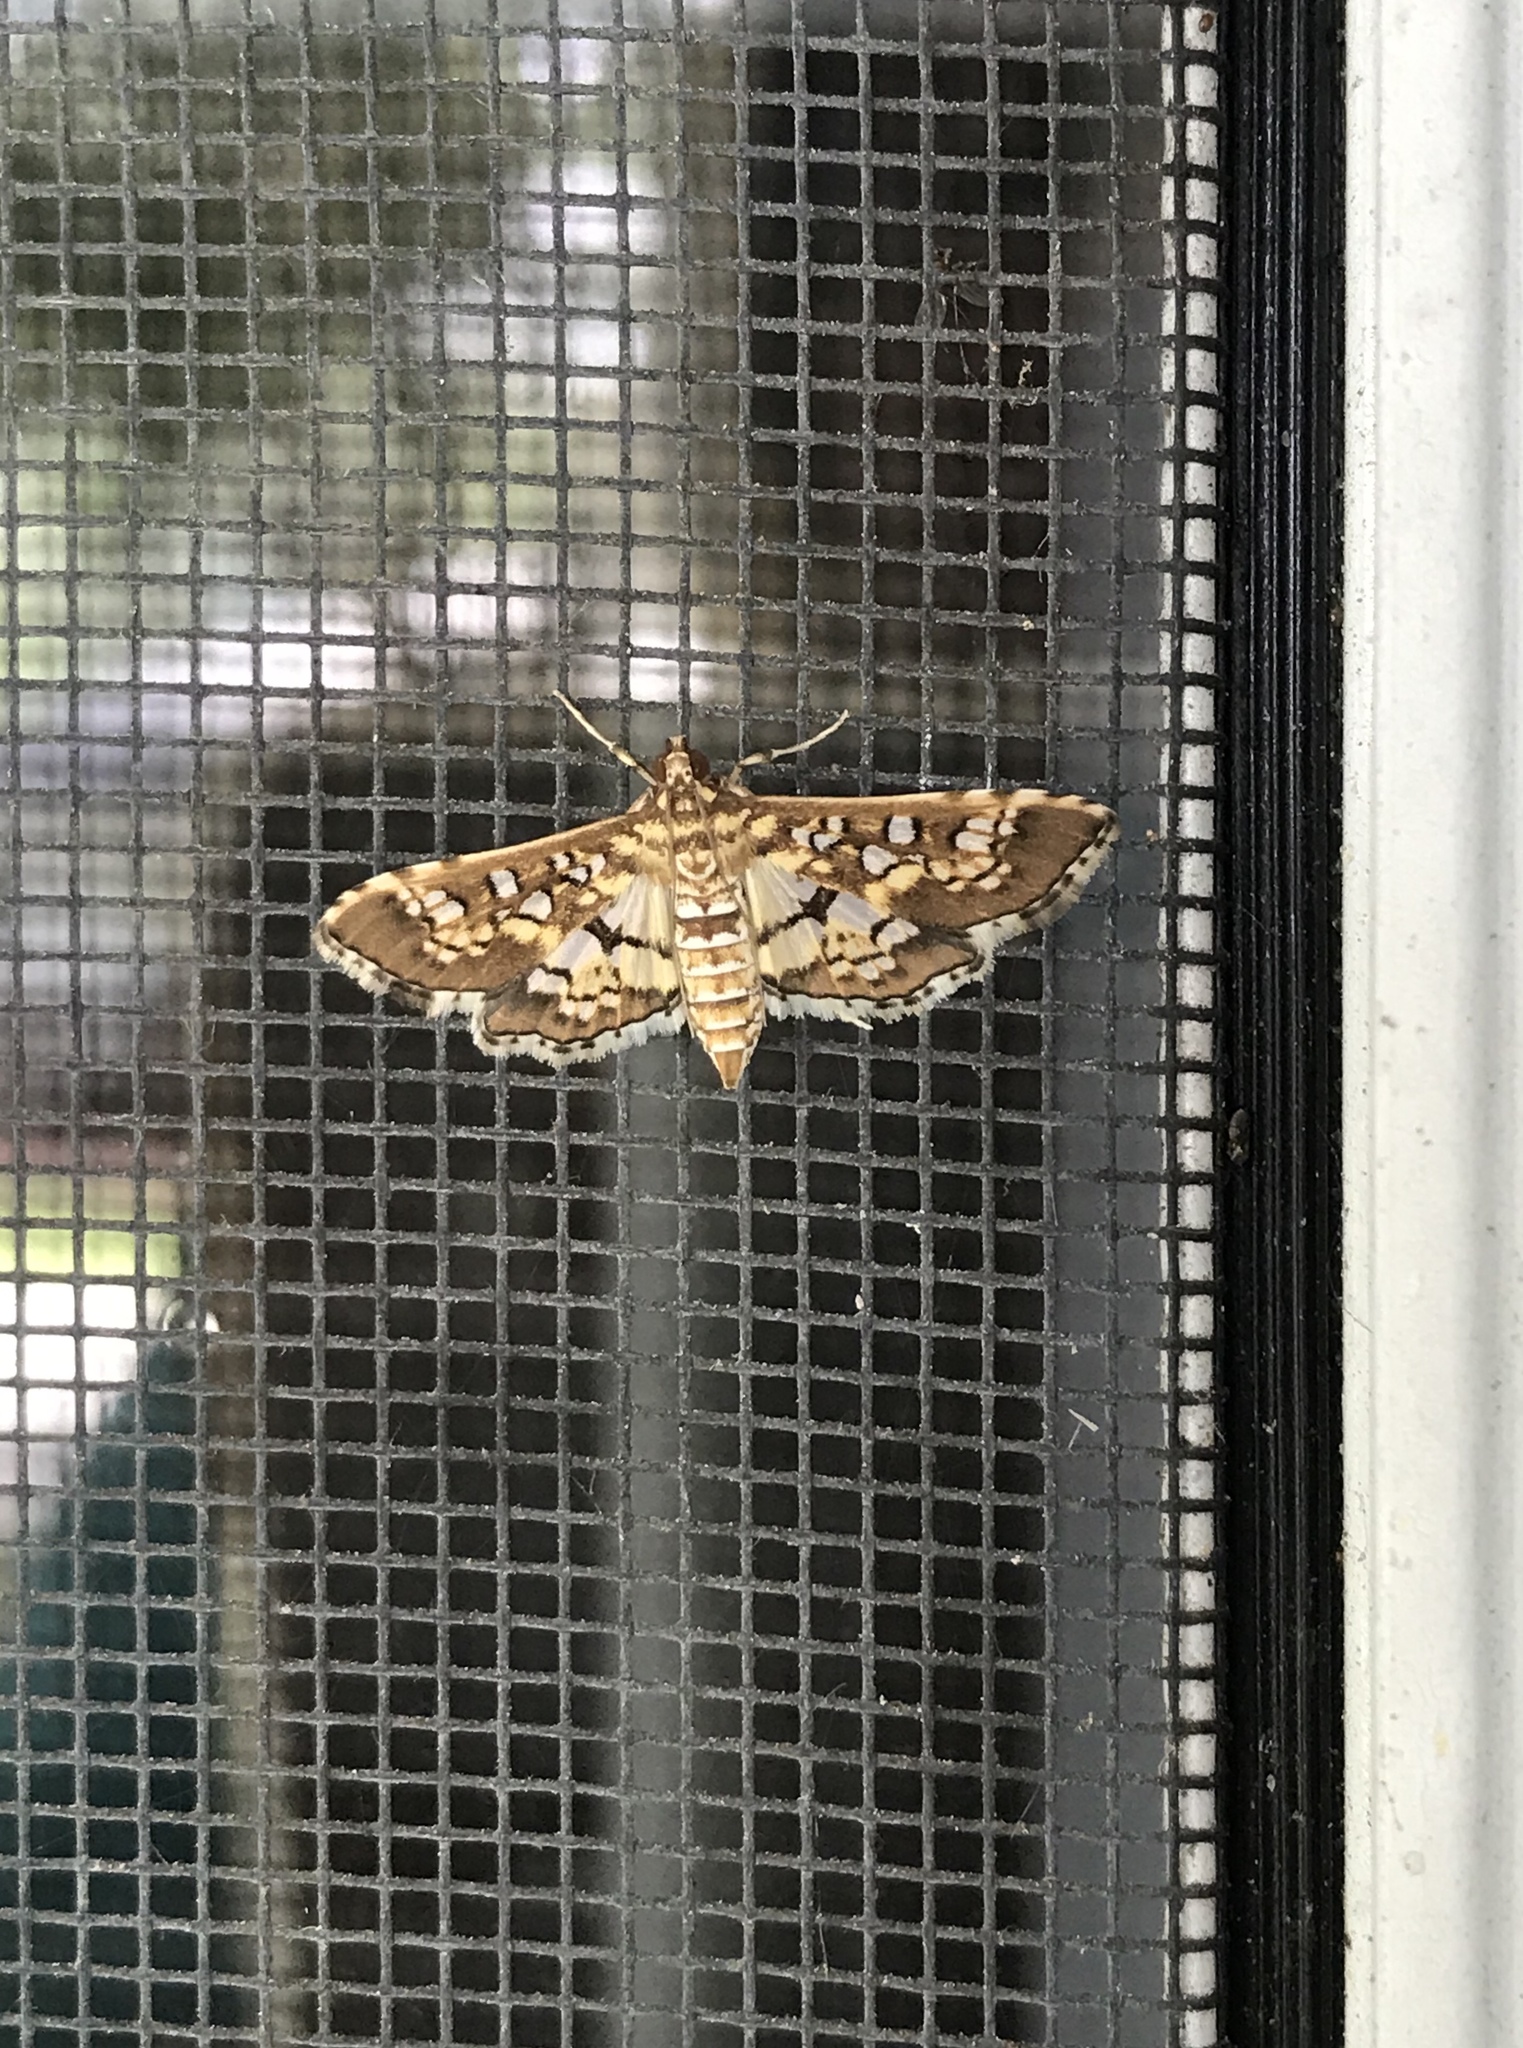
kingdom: Animalia
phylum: Arthropoda
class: Insecta
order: Lepidoptera
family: Crambidae
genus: Samea
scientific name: Samea ecclesialis
